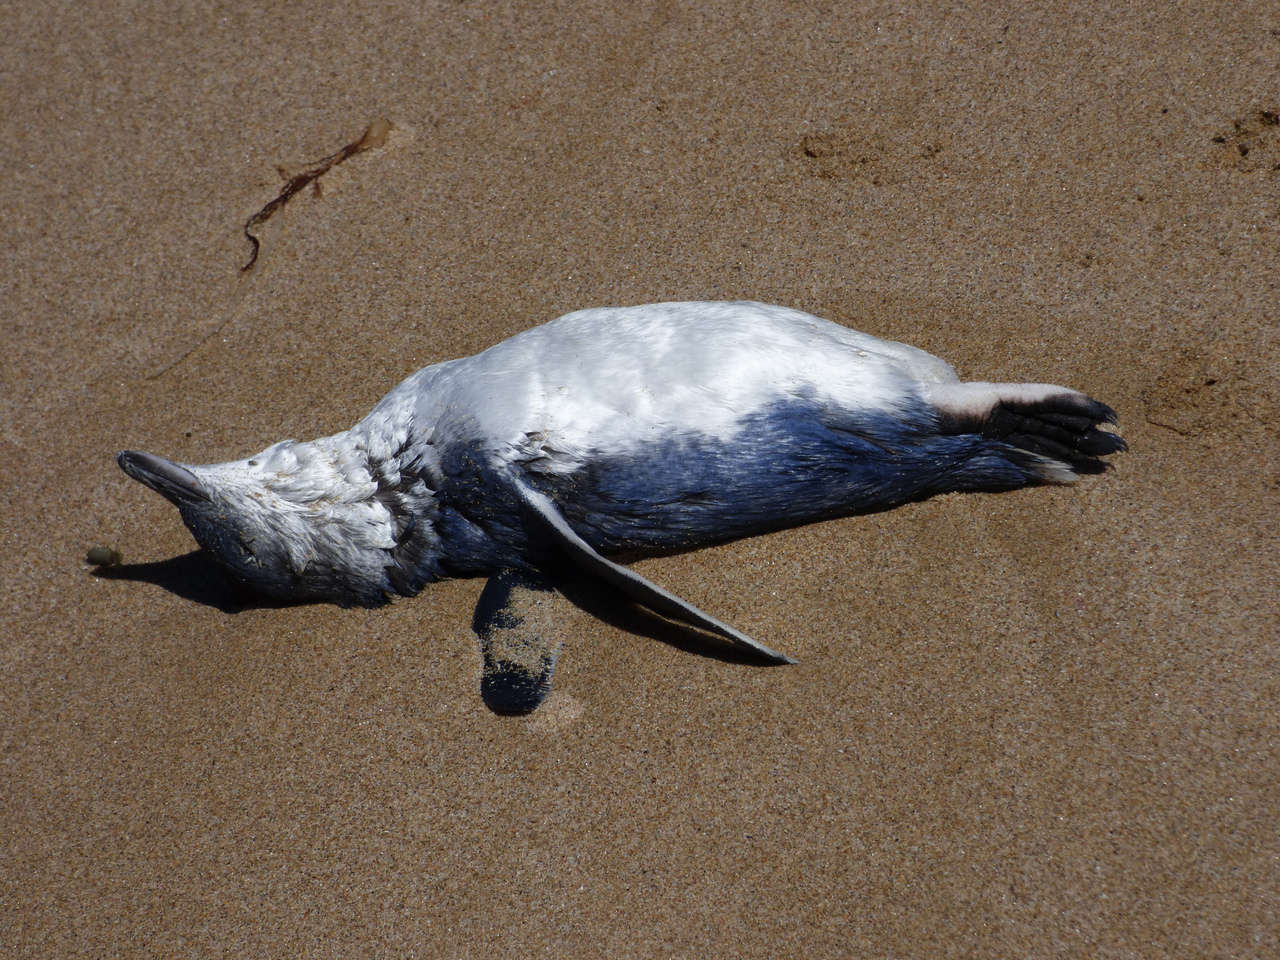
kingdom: Animalia
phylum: Chordata
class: Aves
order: Sphenisciformes
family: Spheniscidae
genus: Eudyptula
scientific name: Eudyptula minor
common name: Little penguin
